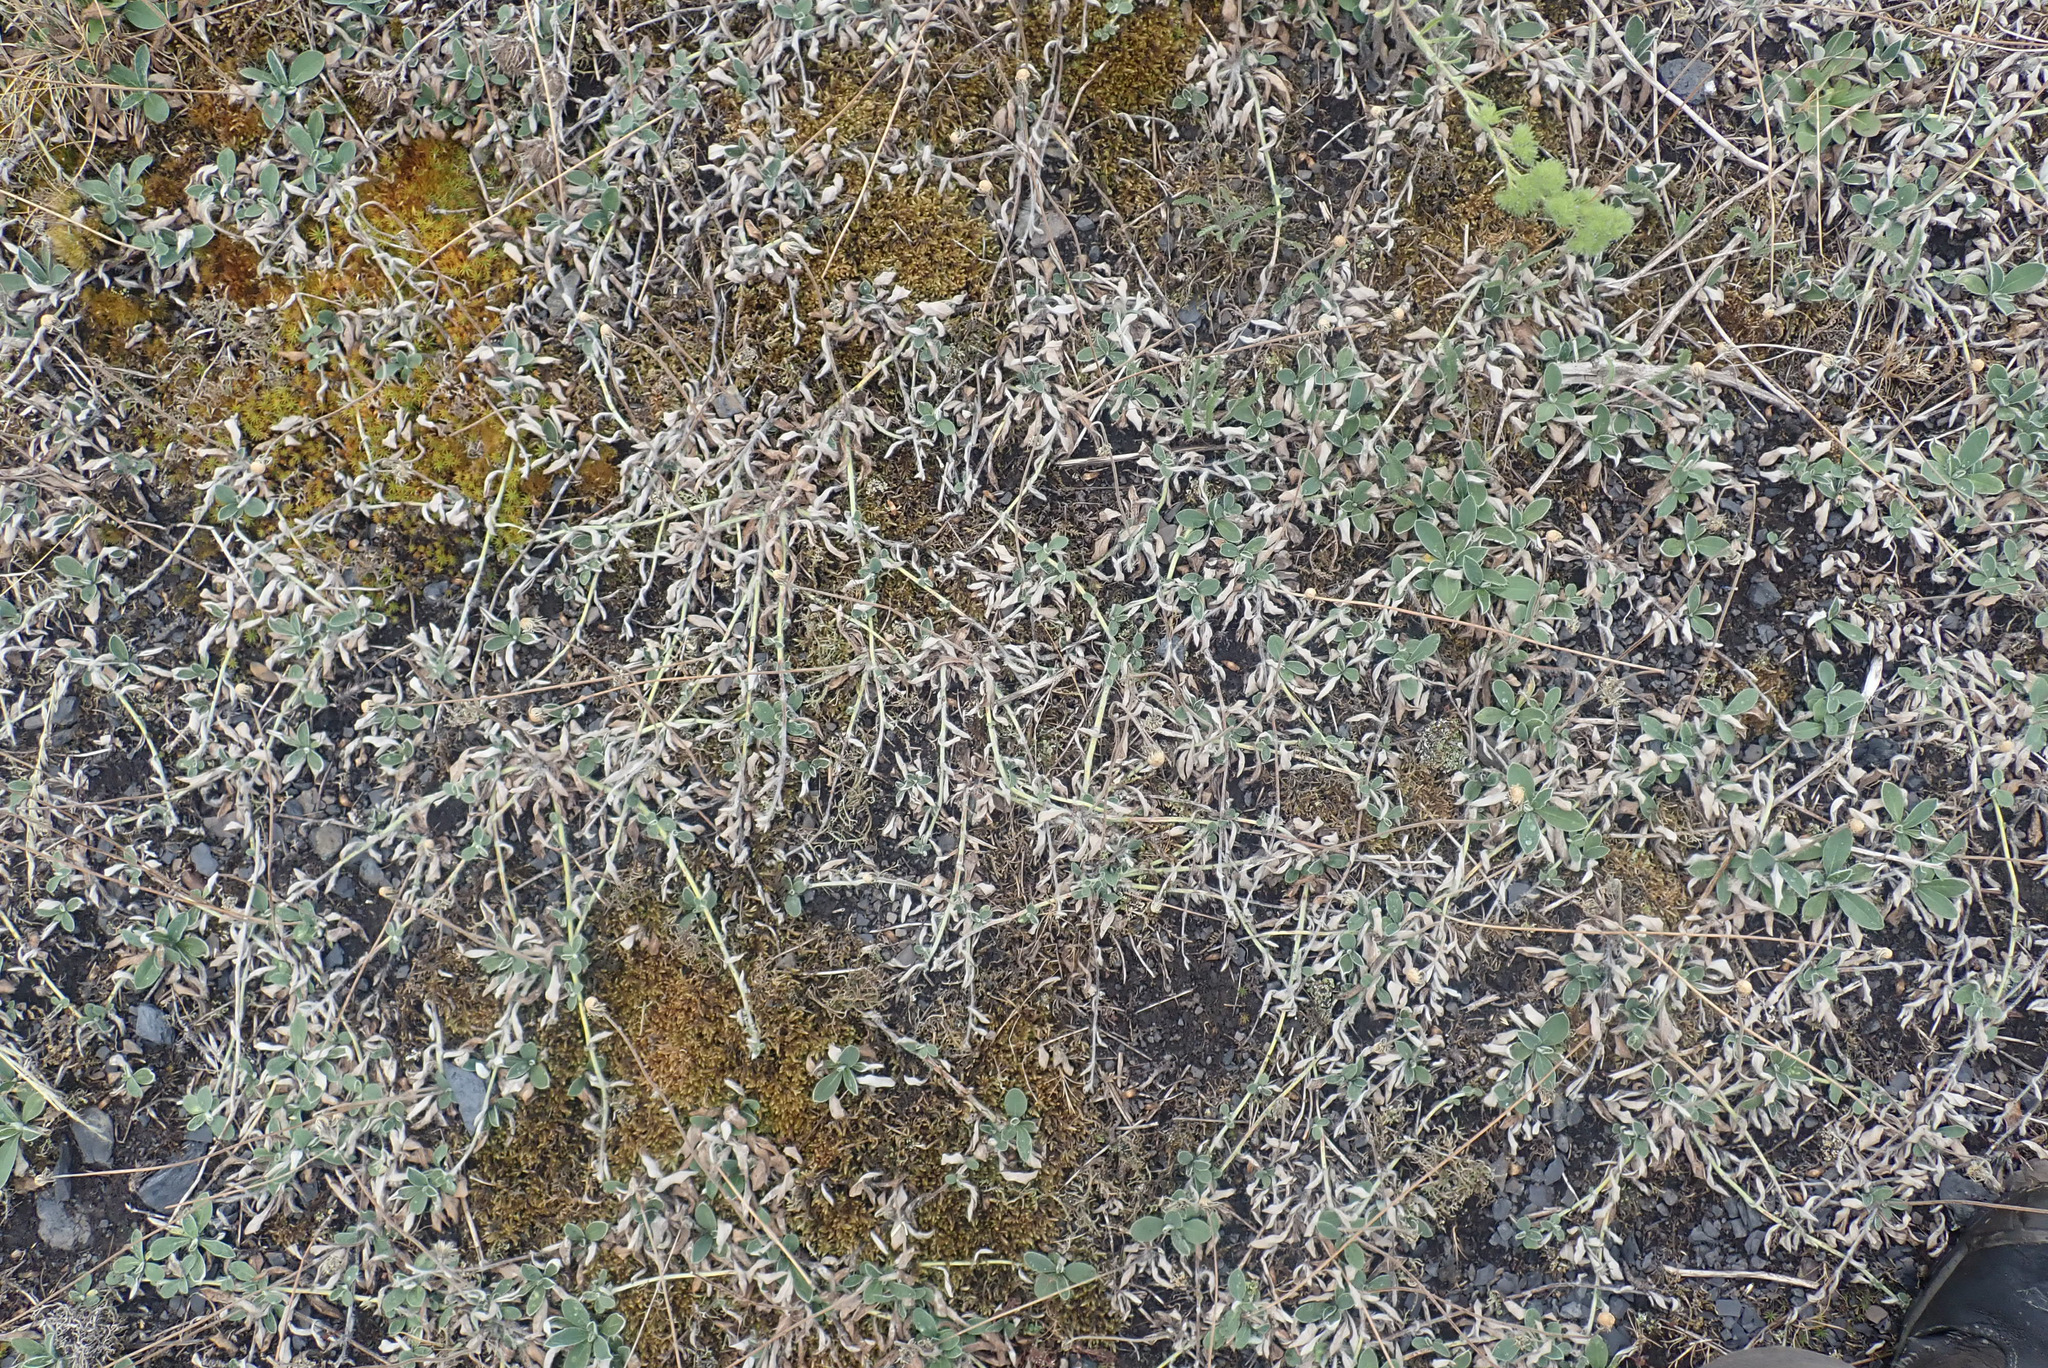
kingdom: Plantae
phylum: Tracheophyta
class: Magnoliopsida
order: Asterales
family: Asteraceae
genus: Pilosella
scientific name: Pilosella officinarum
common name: Mouse-ear hawkweed
